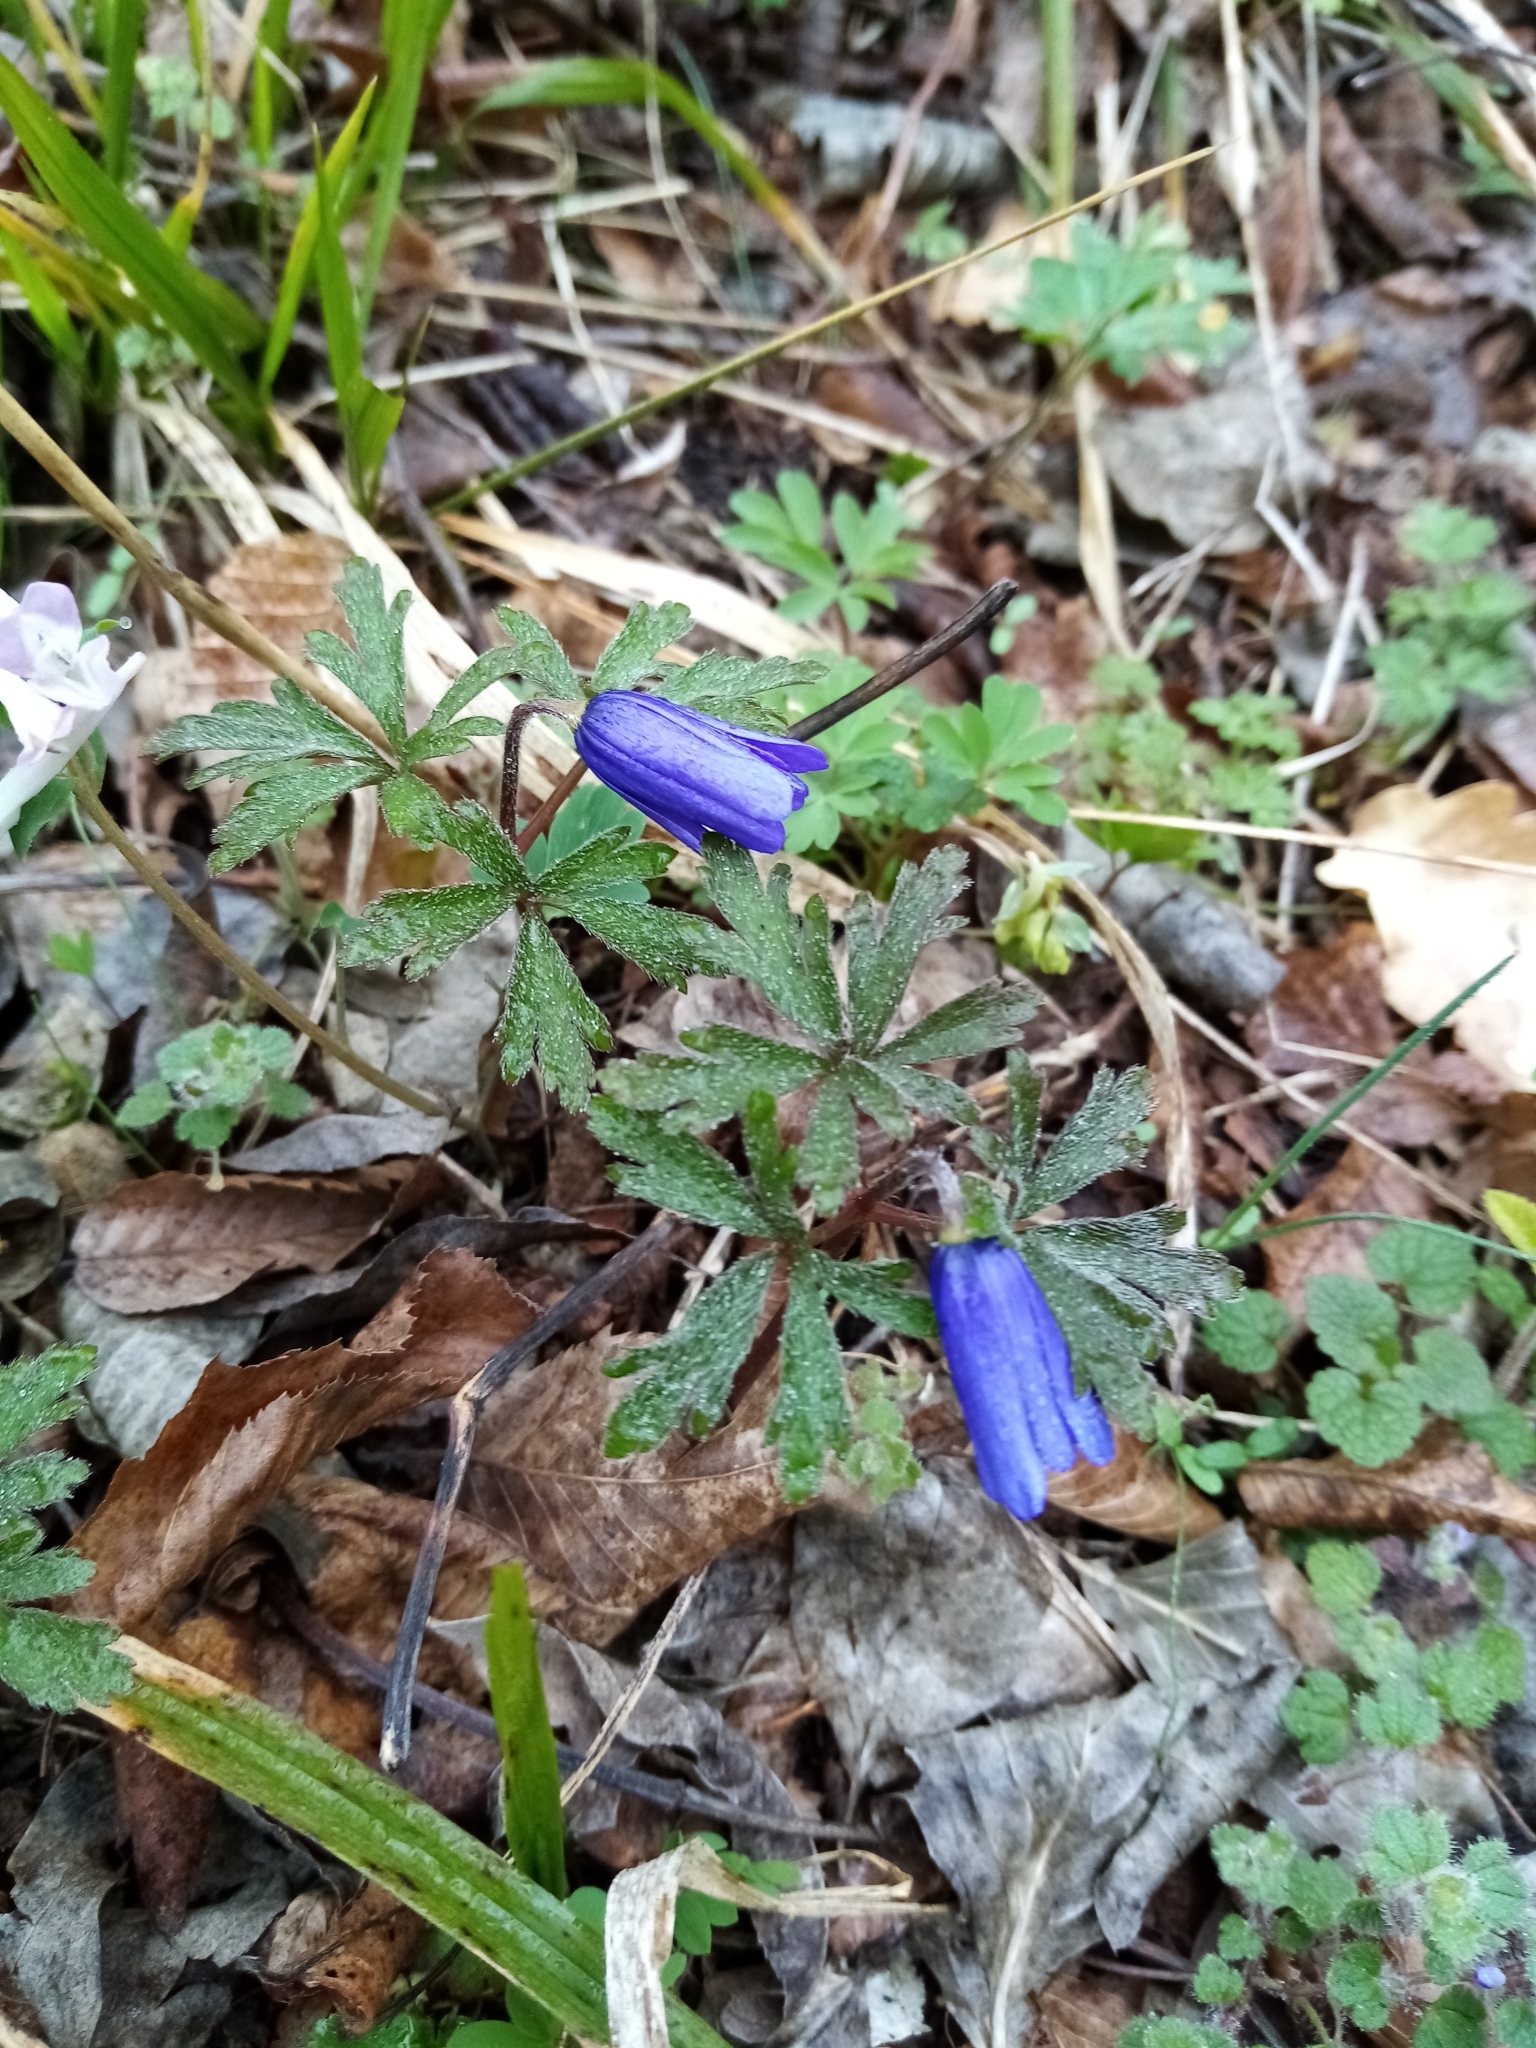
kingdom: Plantae
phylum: Tracheophyta
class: Magnoliopsida
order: Ranunculales
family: Ranunculaceae
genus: Anemone
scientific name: Anemone blanda
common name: Balkan anemone
